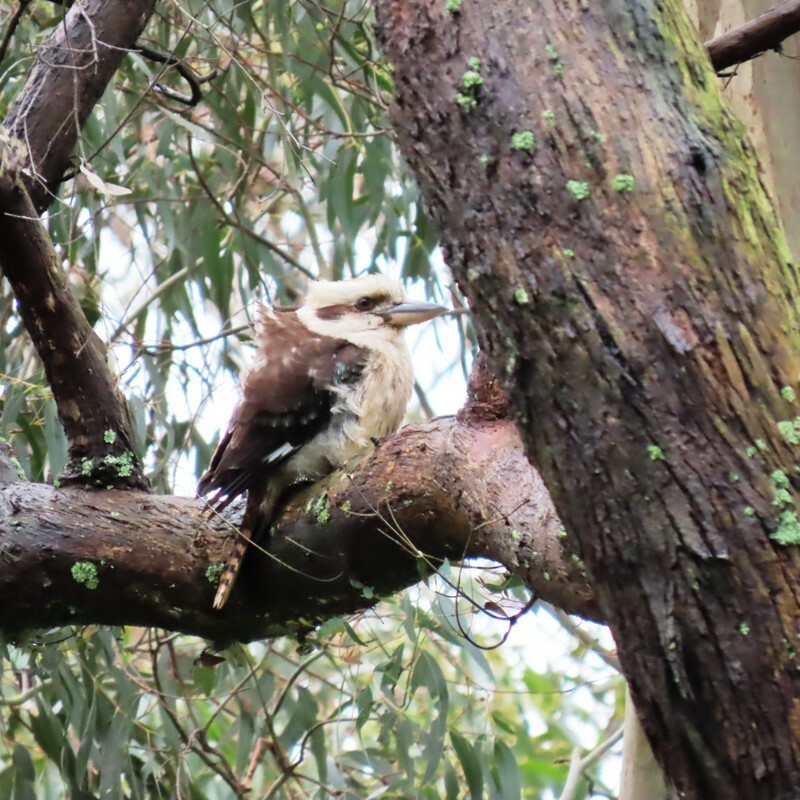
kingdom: Animalia
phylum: Chordata
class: Aves
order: Coraciiformes
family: Alcedinidae
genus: Dacelo
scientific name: Dacelo novaeguineae
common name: Laughing kookaburra
